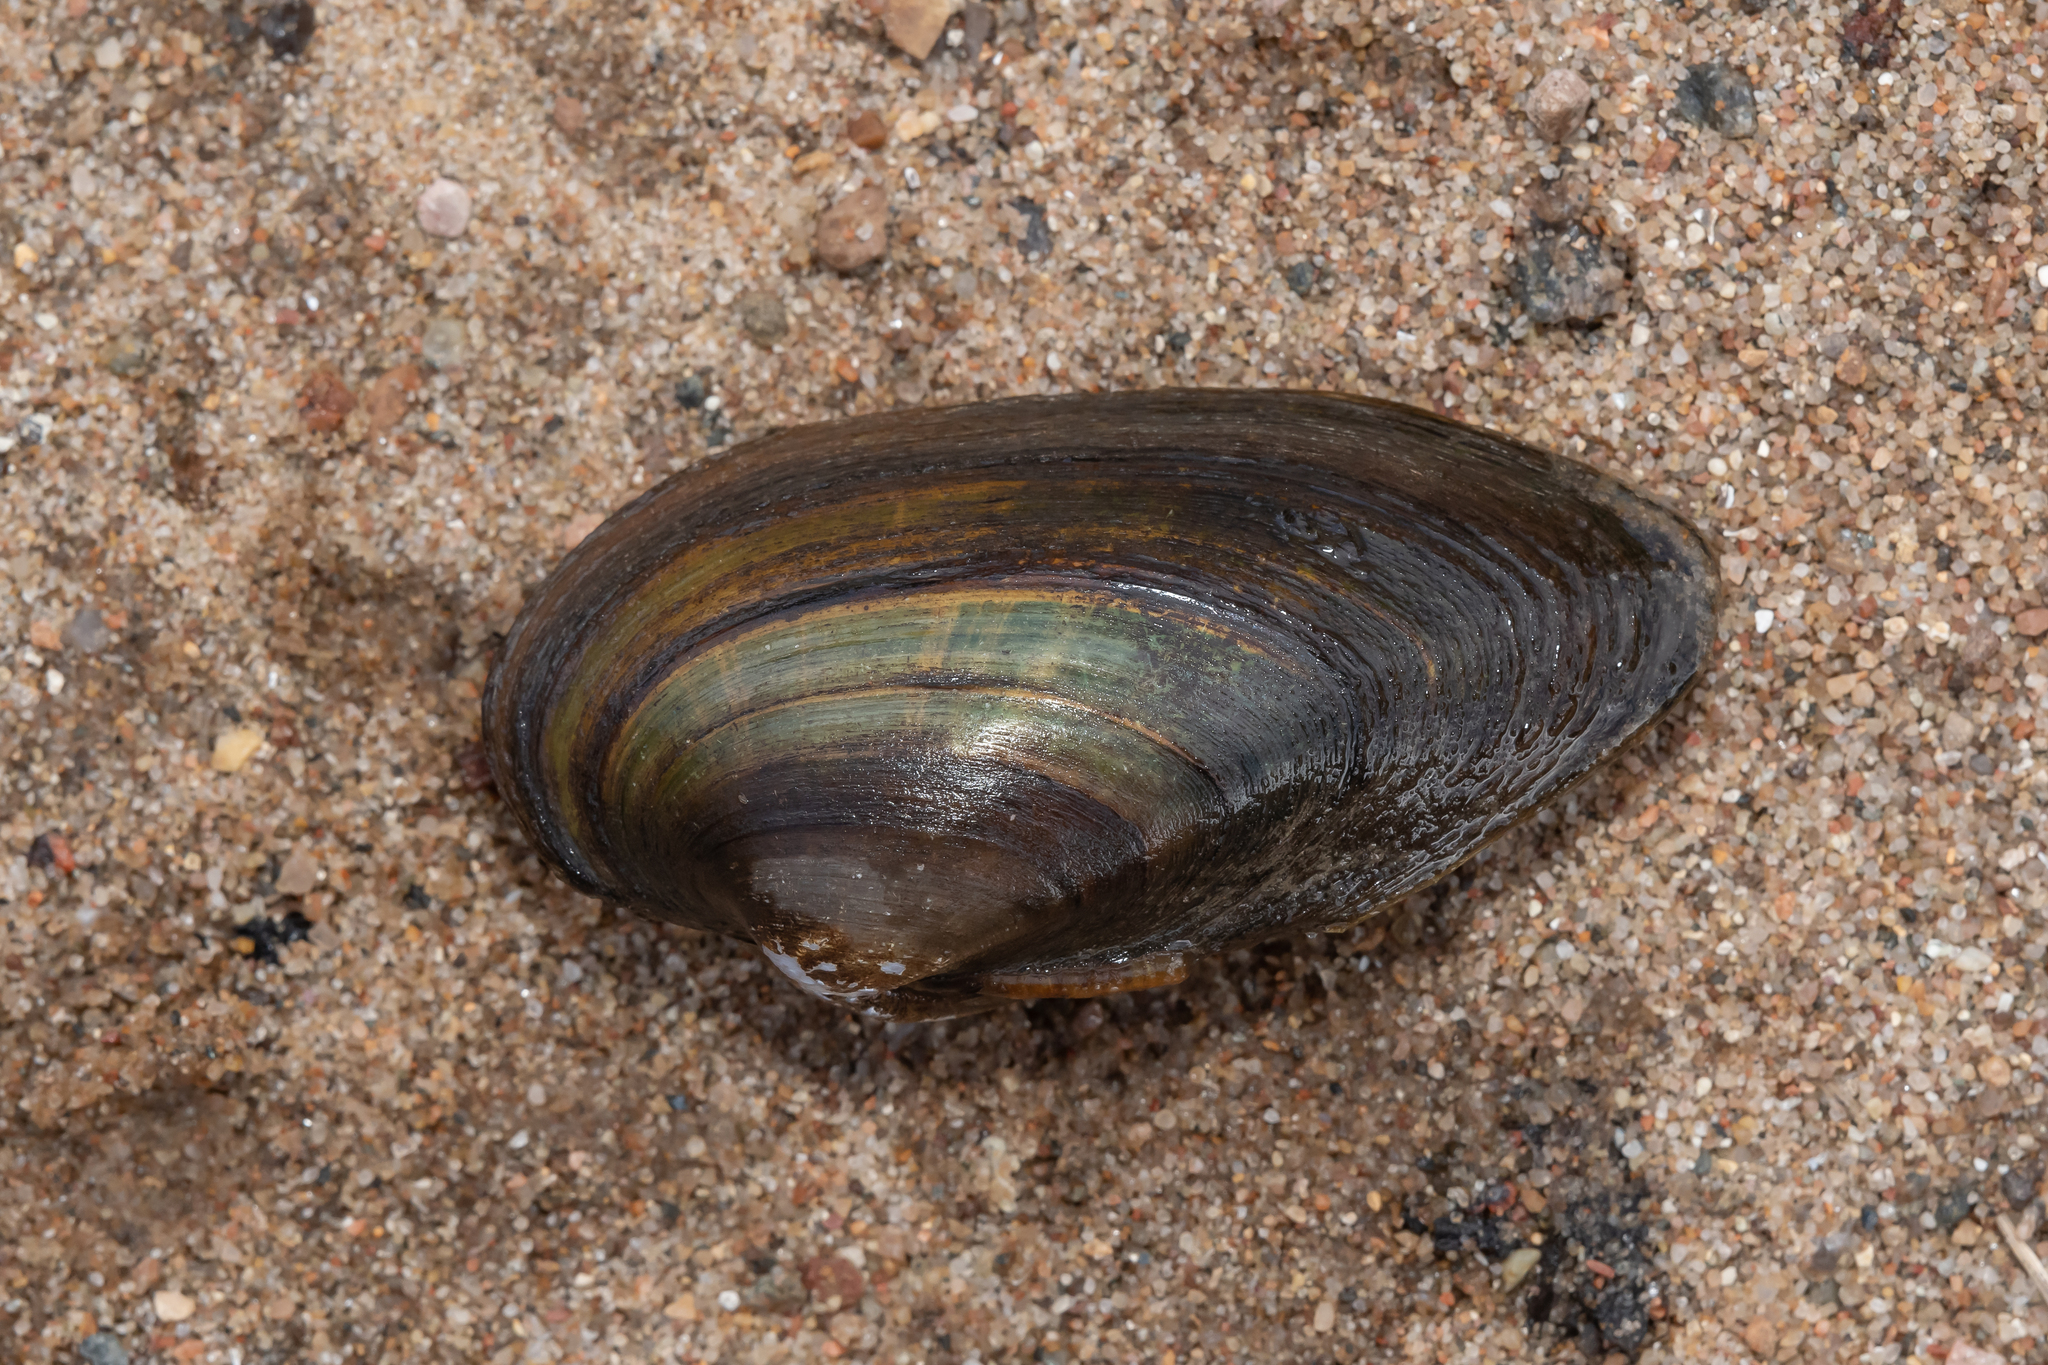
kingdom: Animalia
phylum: Mollusca
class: Bivalvia
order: Unionida
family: Unionidae
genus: Unio
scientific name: Unio tumidus
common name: Swollen river mussel
